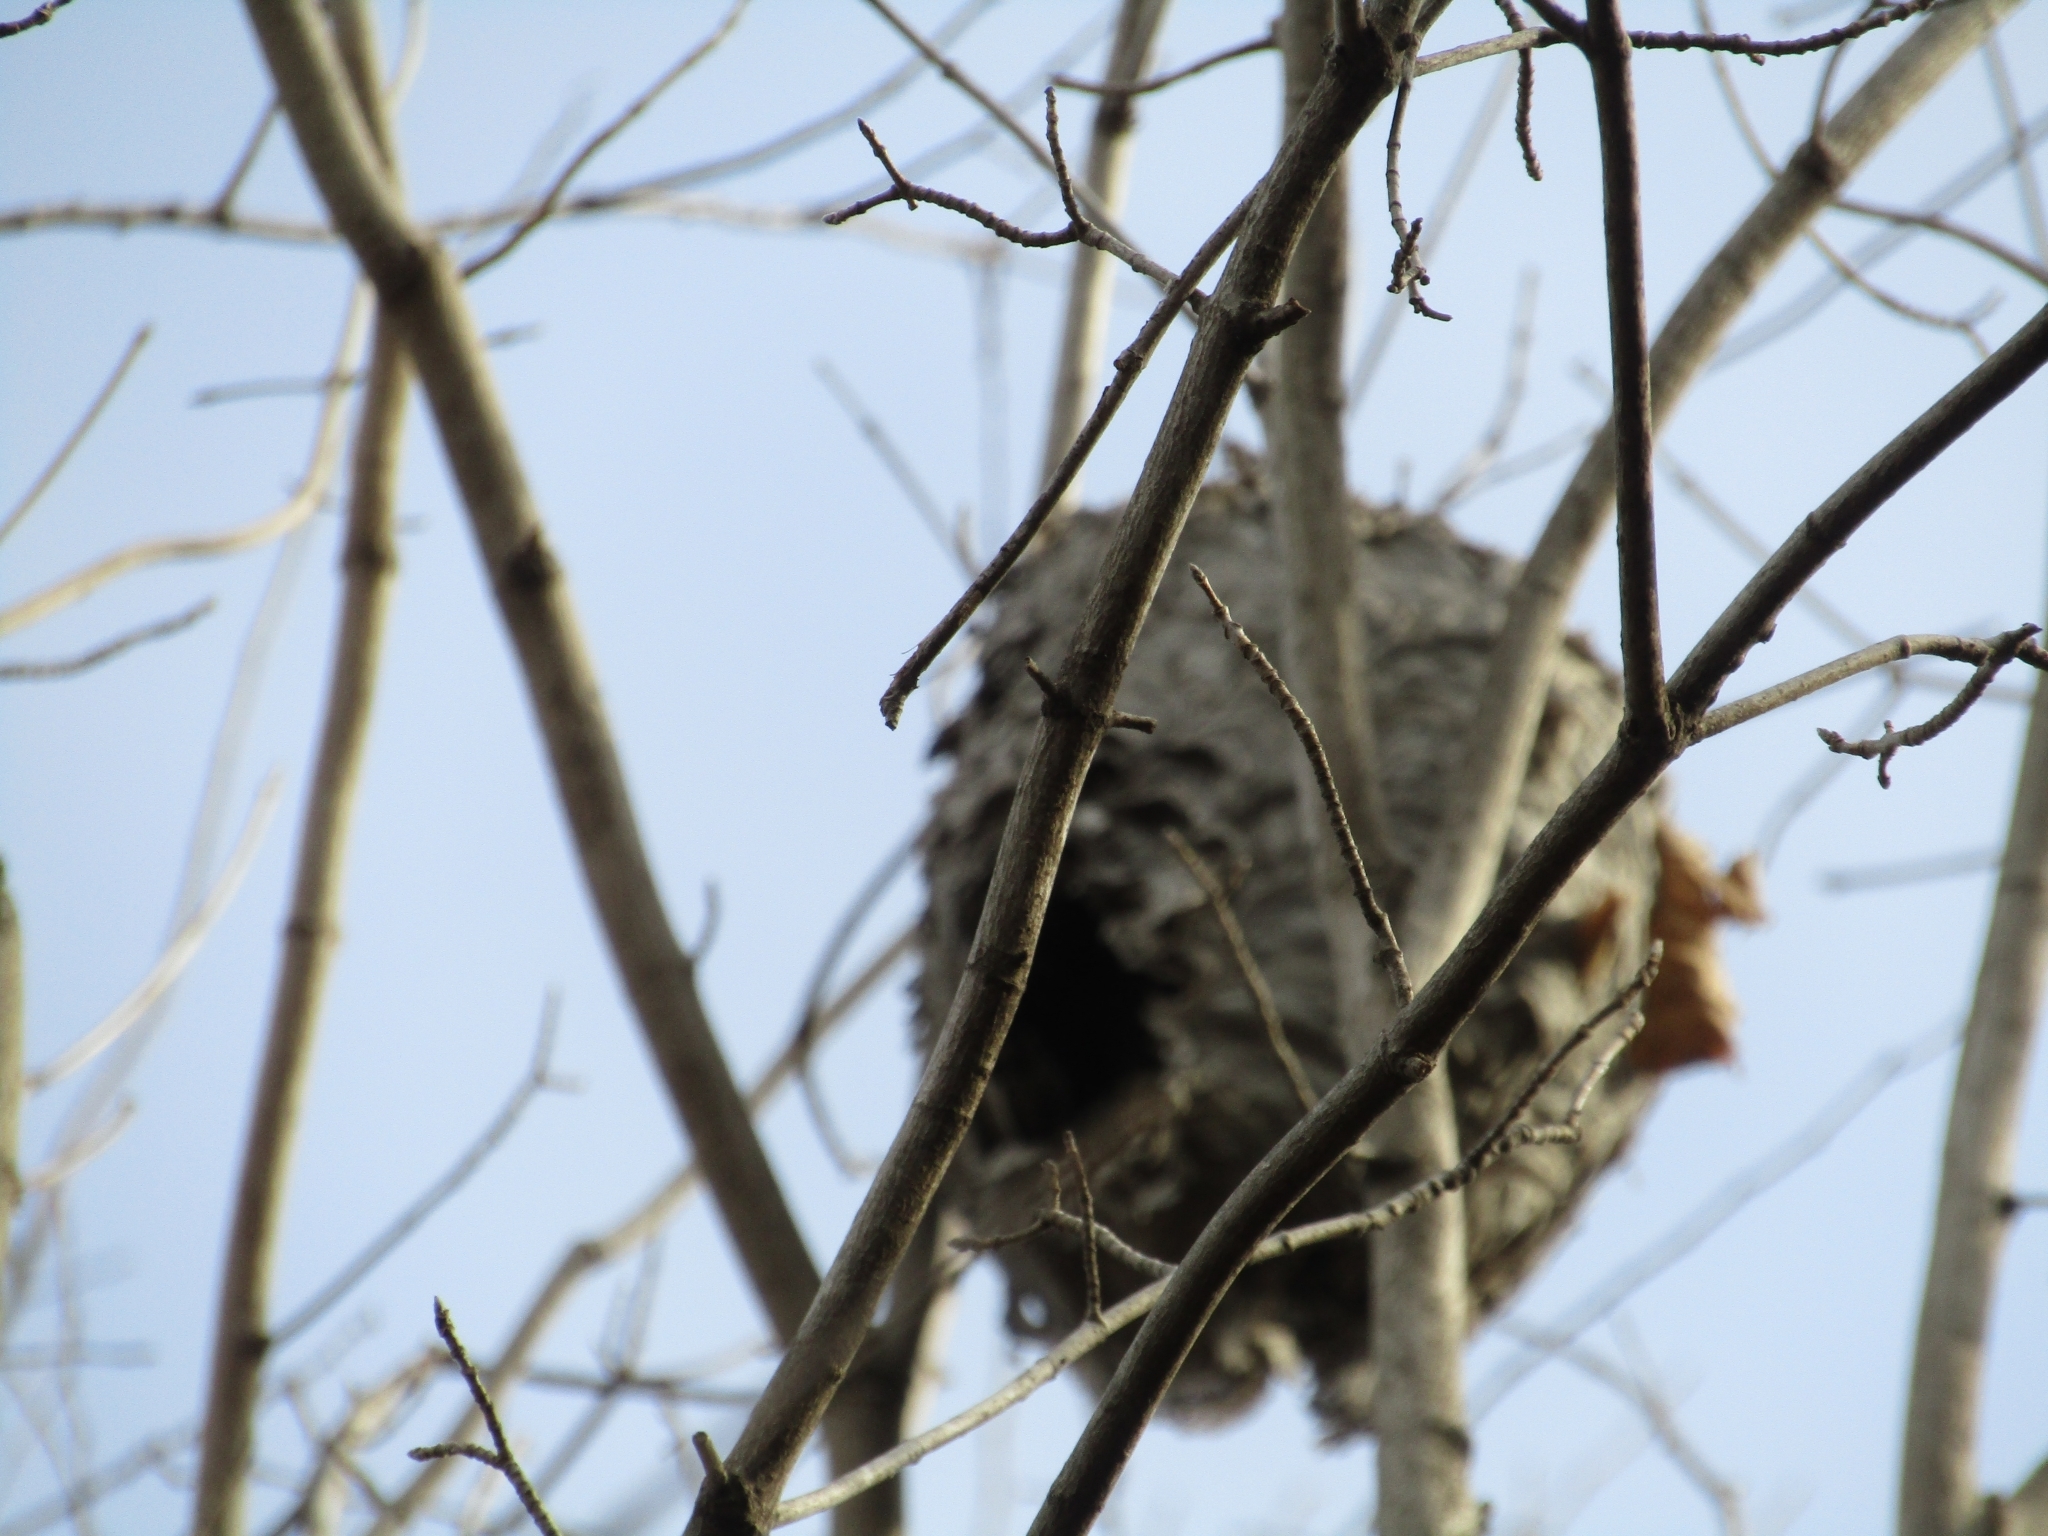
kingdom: Animalia
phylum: Arthropoda
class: Insecta
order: Hymenoptera
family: Vespidae
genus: Dolichovespula
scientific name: Dolichovespula
